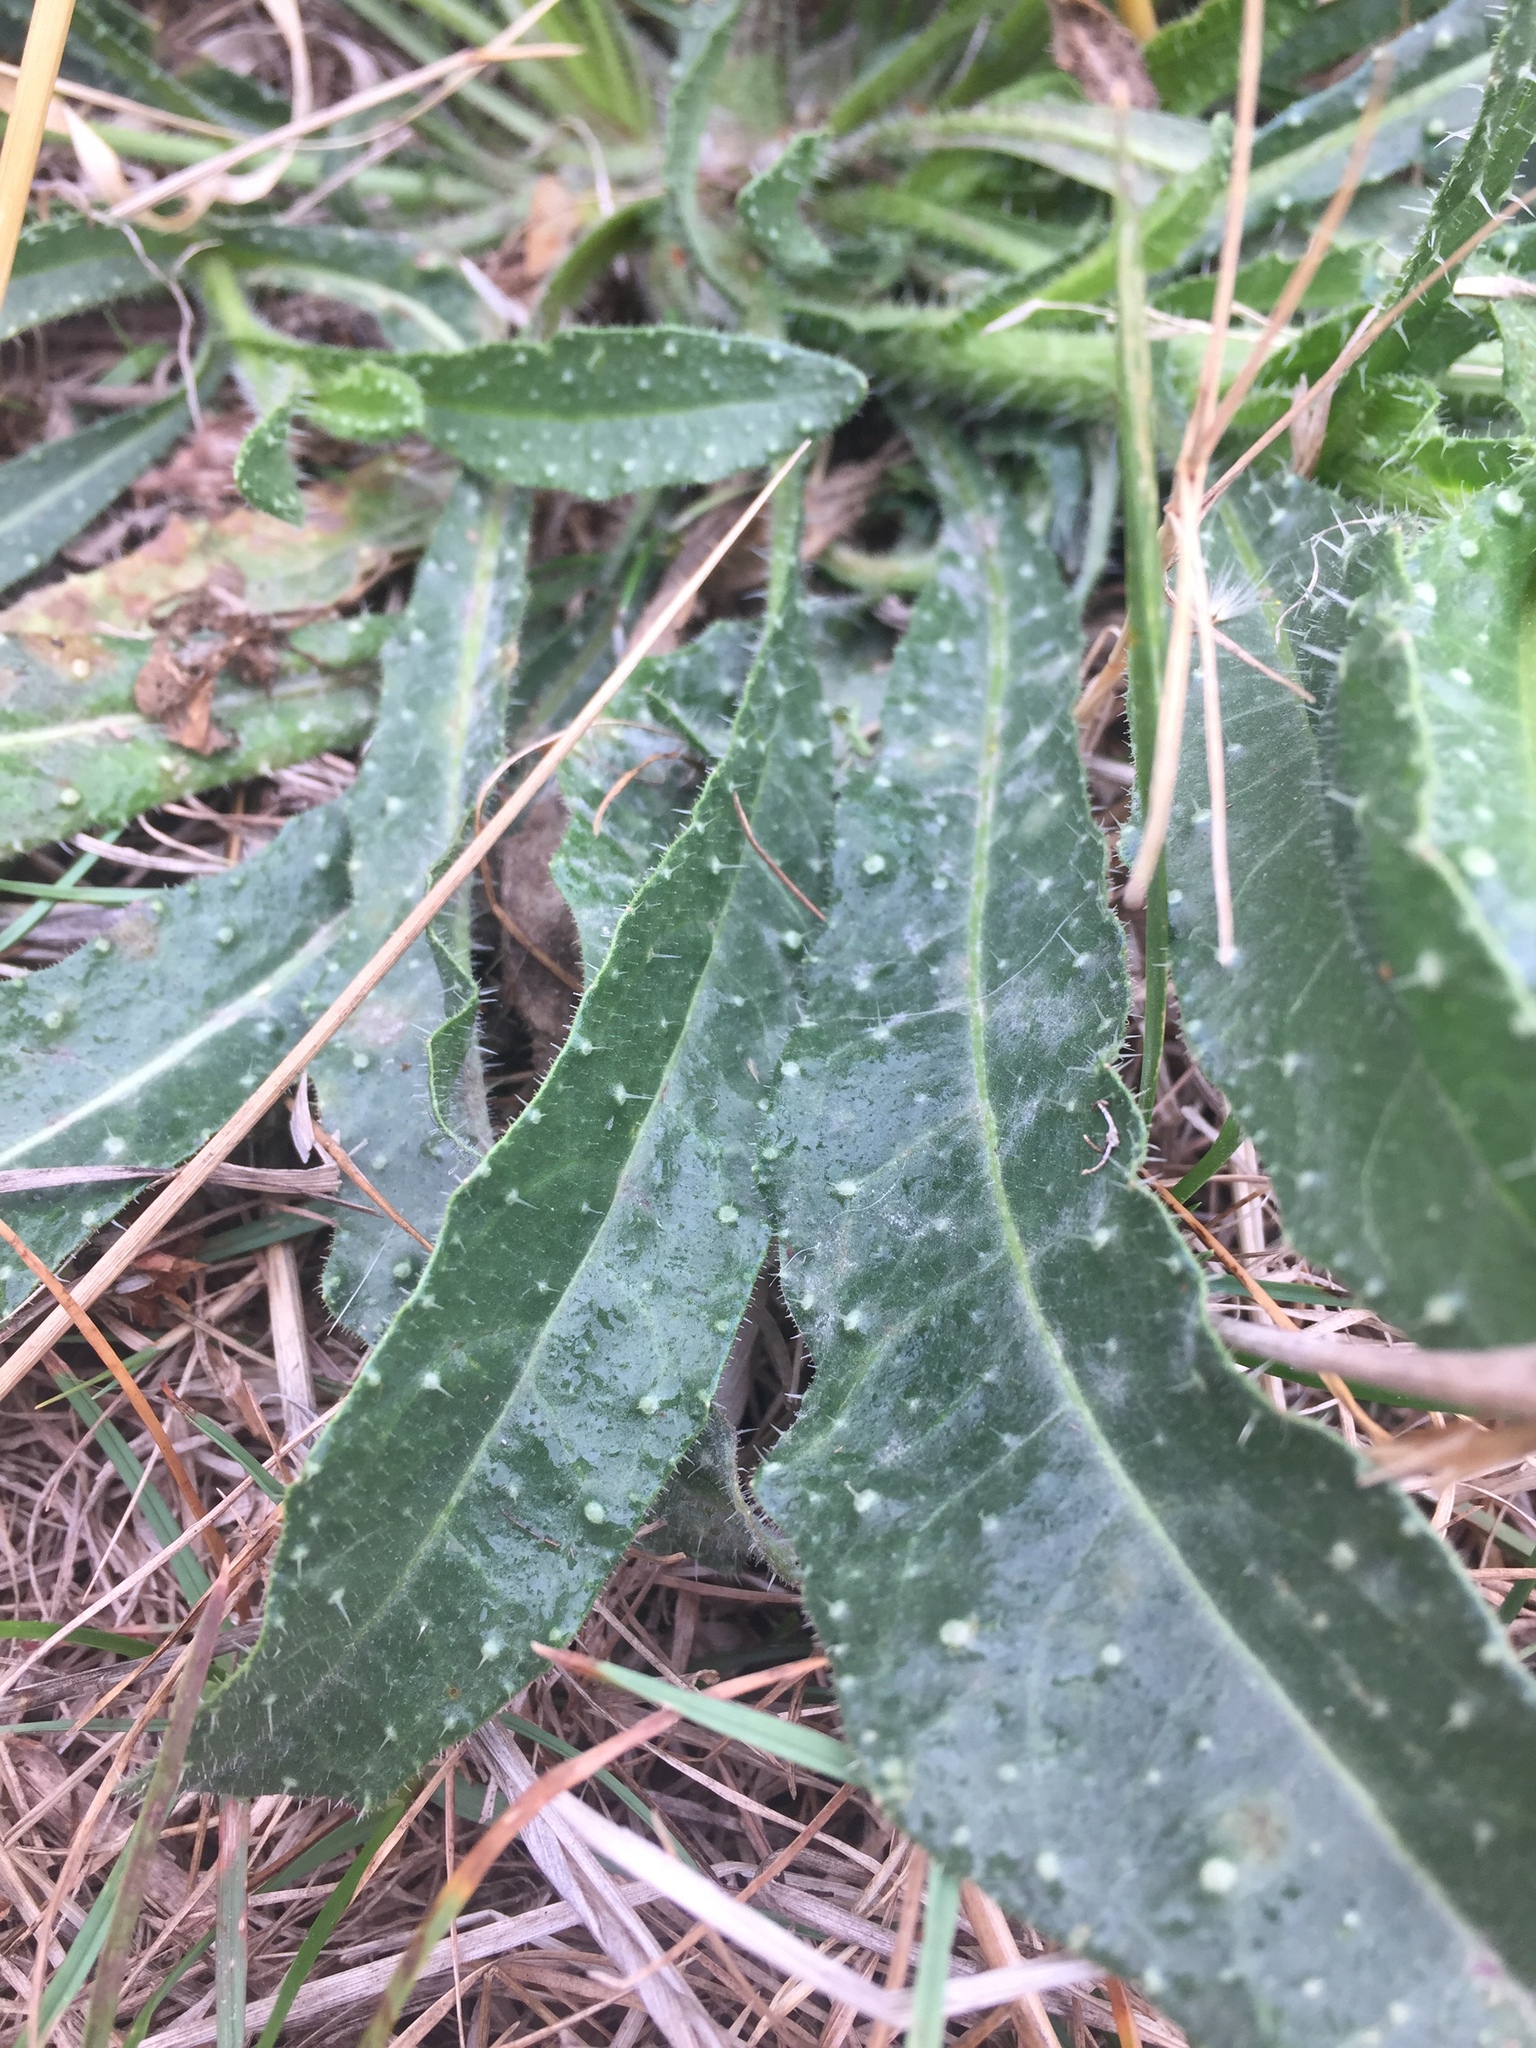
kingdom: Plantae
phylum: Tracheophyta
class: Magnoliopsida
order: Asterales
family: Asteraceae
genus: Helminthotheca
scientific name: Helminthotheca echioides
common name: Ox-tongue
